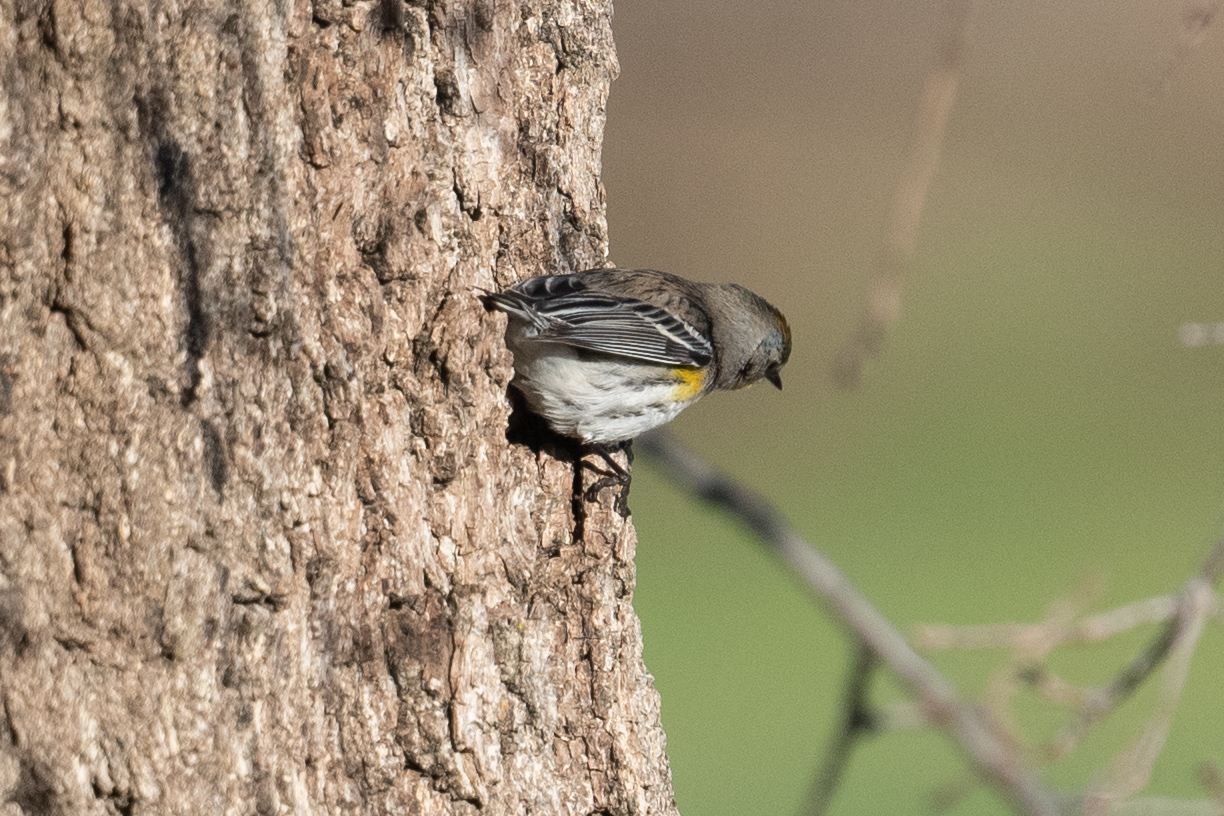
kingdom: Animalia
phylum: Chordata
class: Aves
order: Passeriformes
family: Parulidae
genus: Setophaga
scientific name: Setophaga coronata
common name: Myrtle warbler
